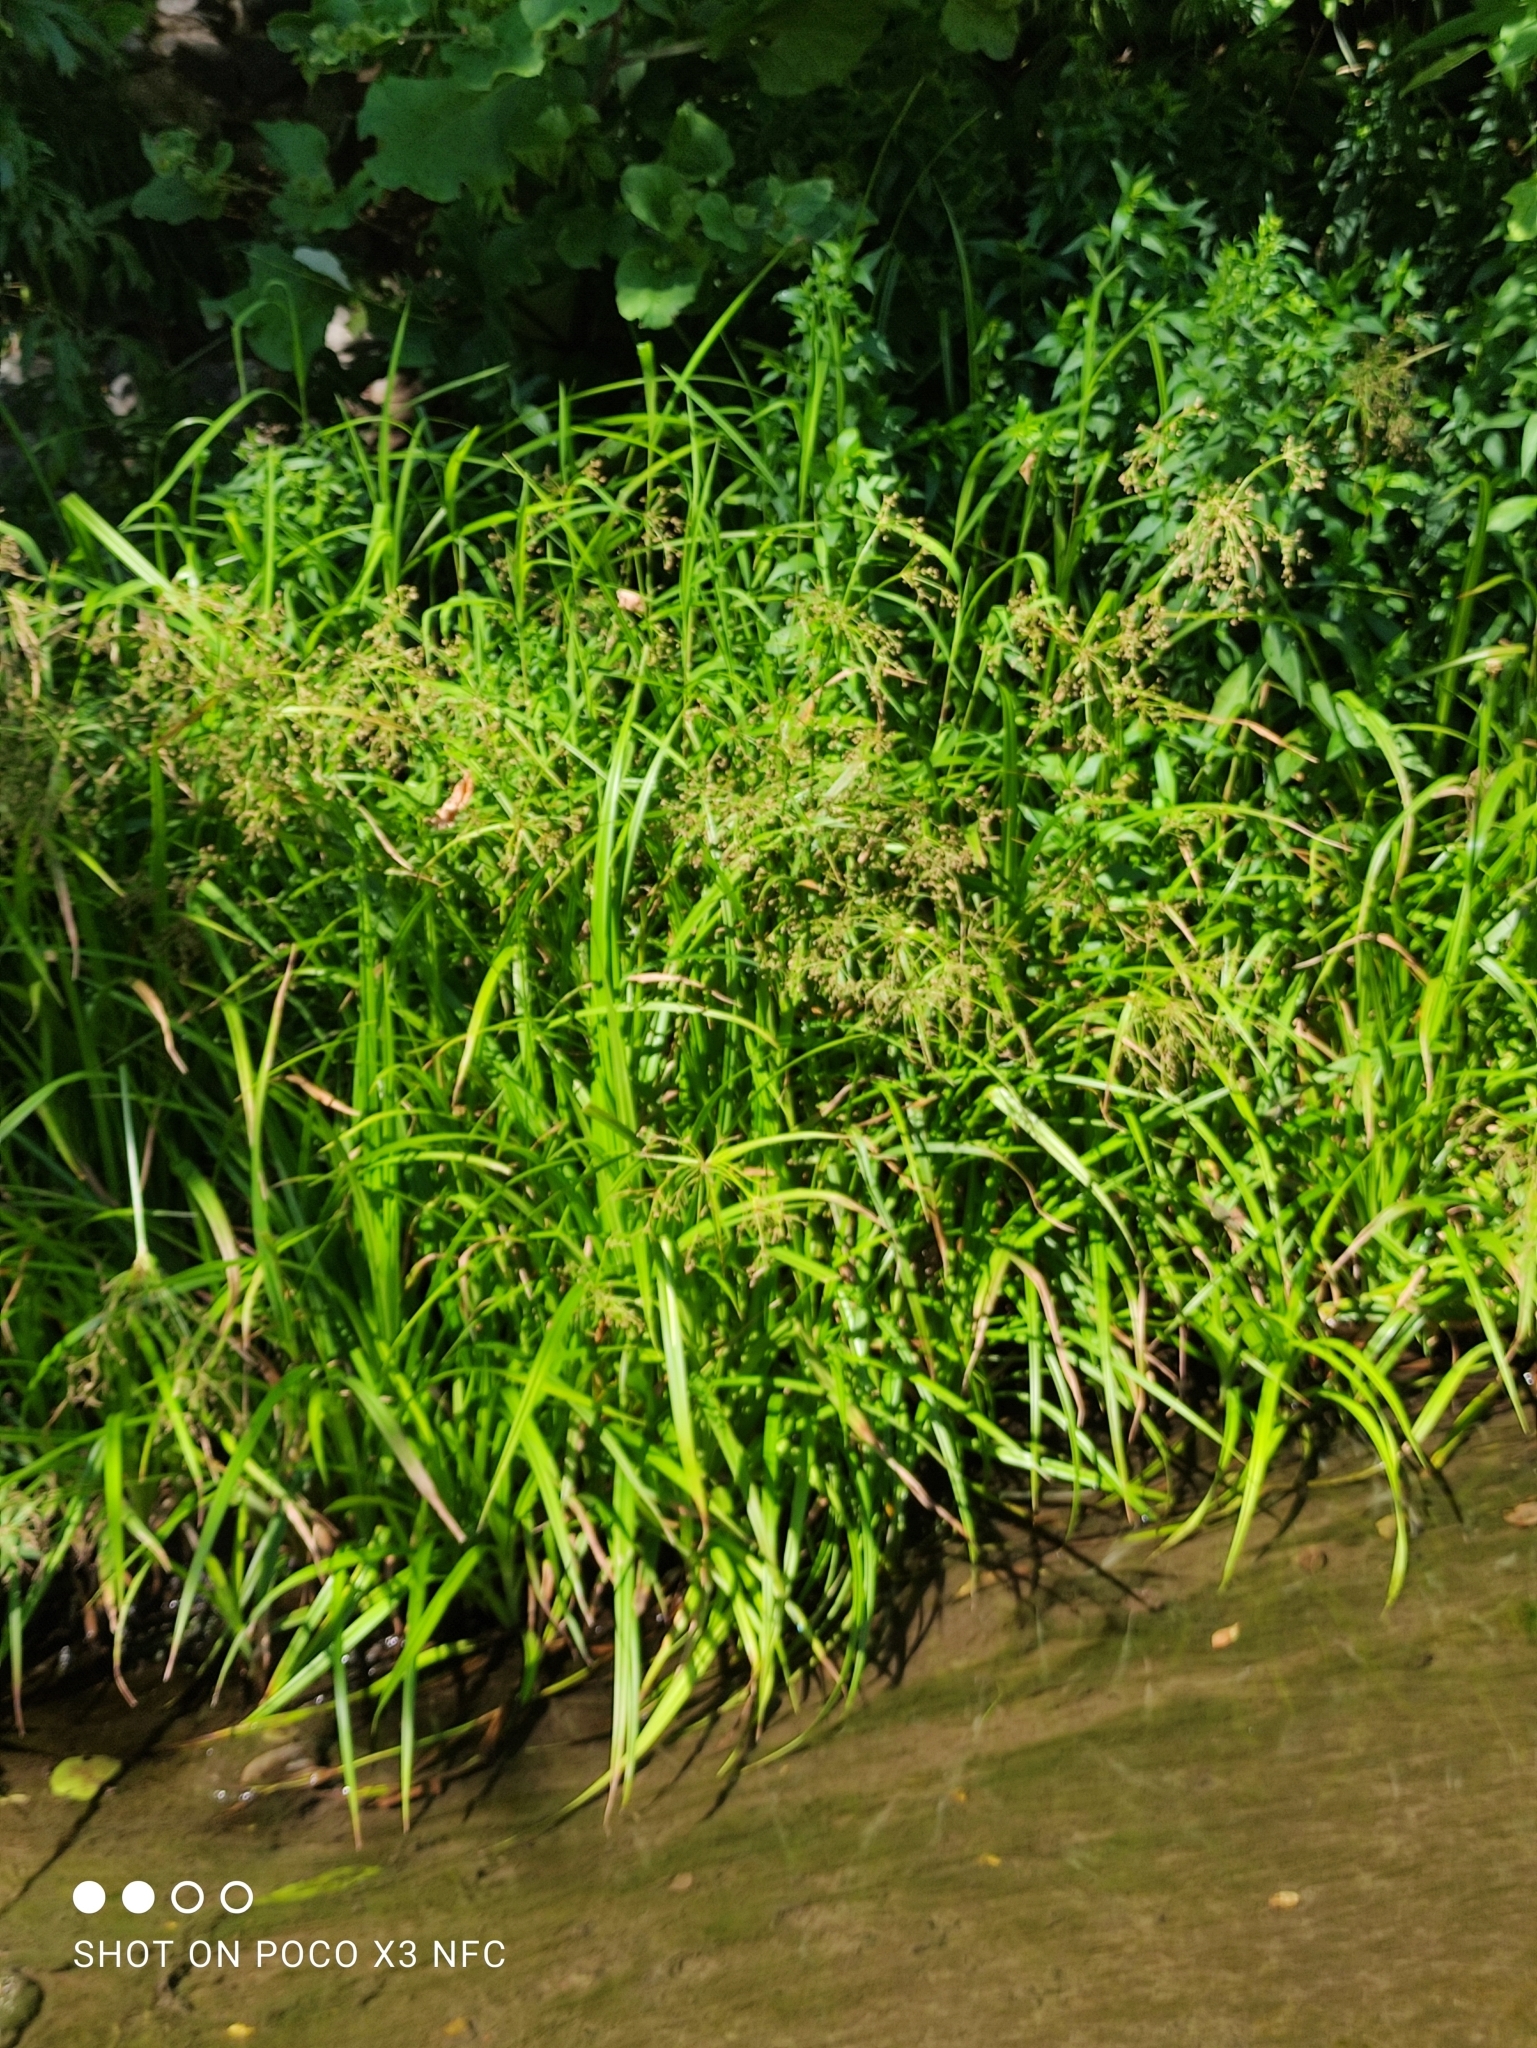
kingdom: Plantae
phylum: Tracheophyta
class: Liliopsida
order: Poales
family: Cyperaceae
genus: Scirpus
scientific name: Scirpus sylvaticus
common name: Wood club-rush
